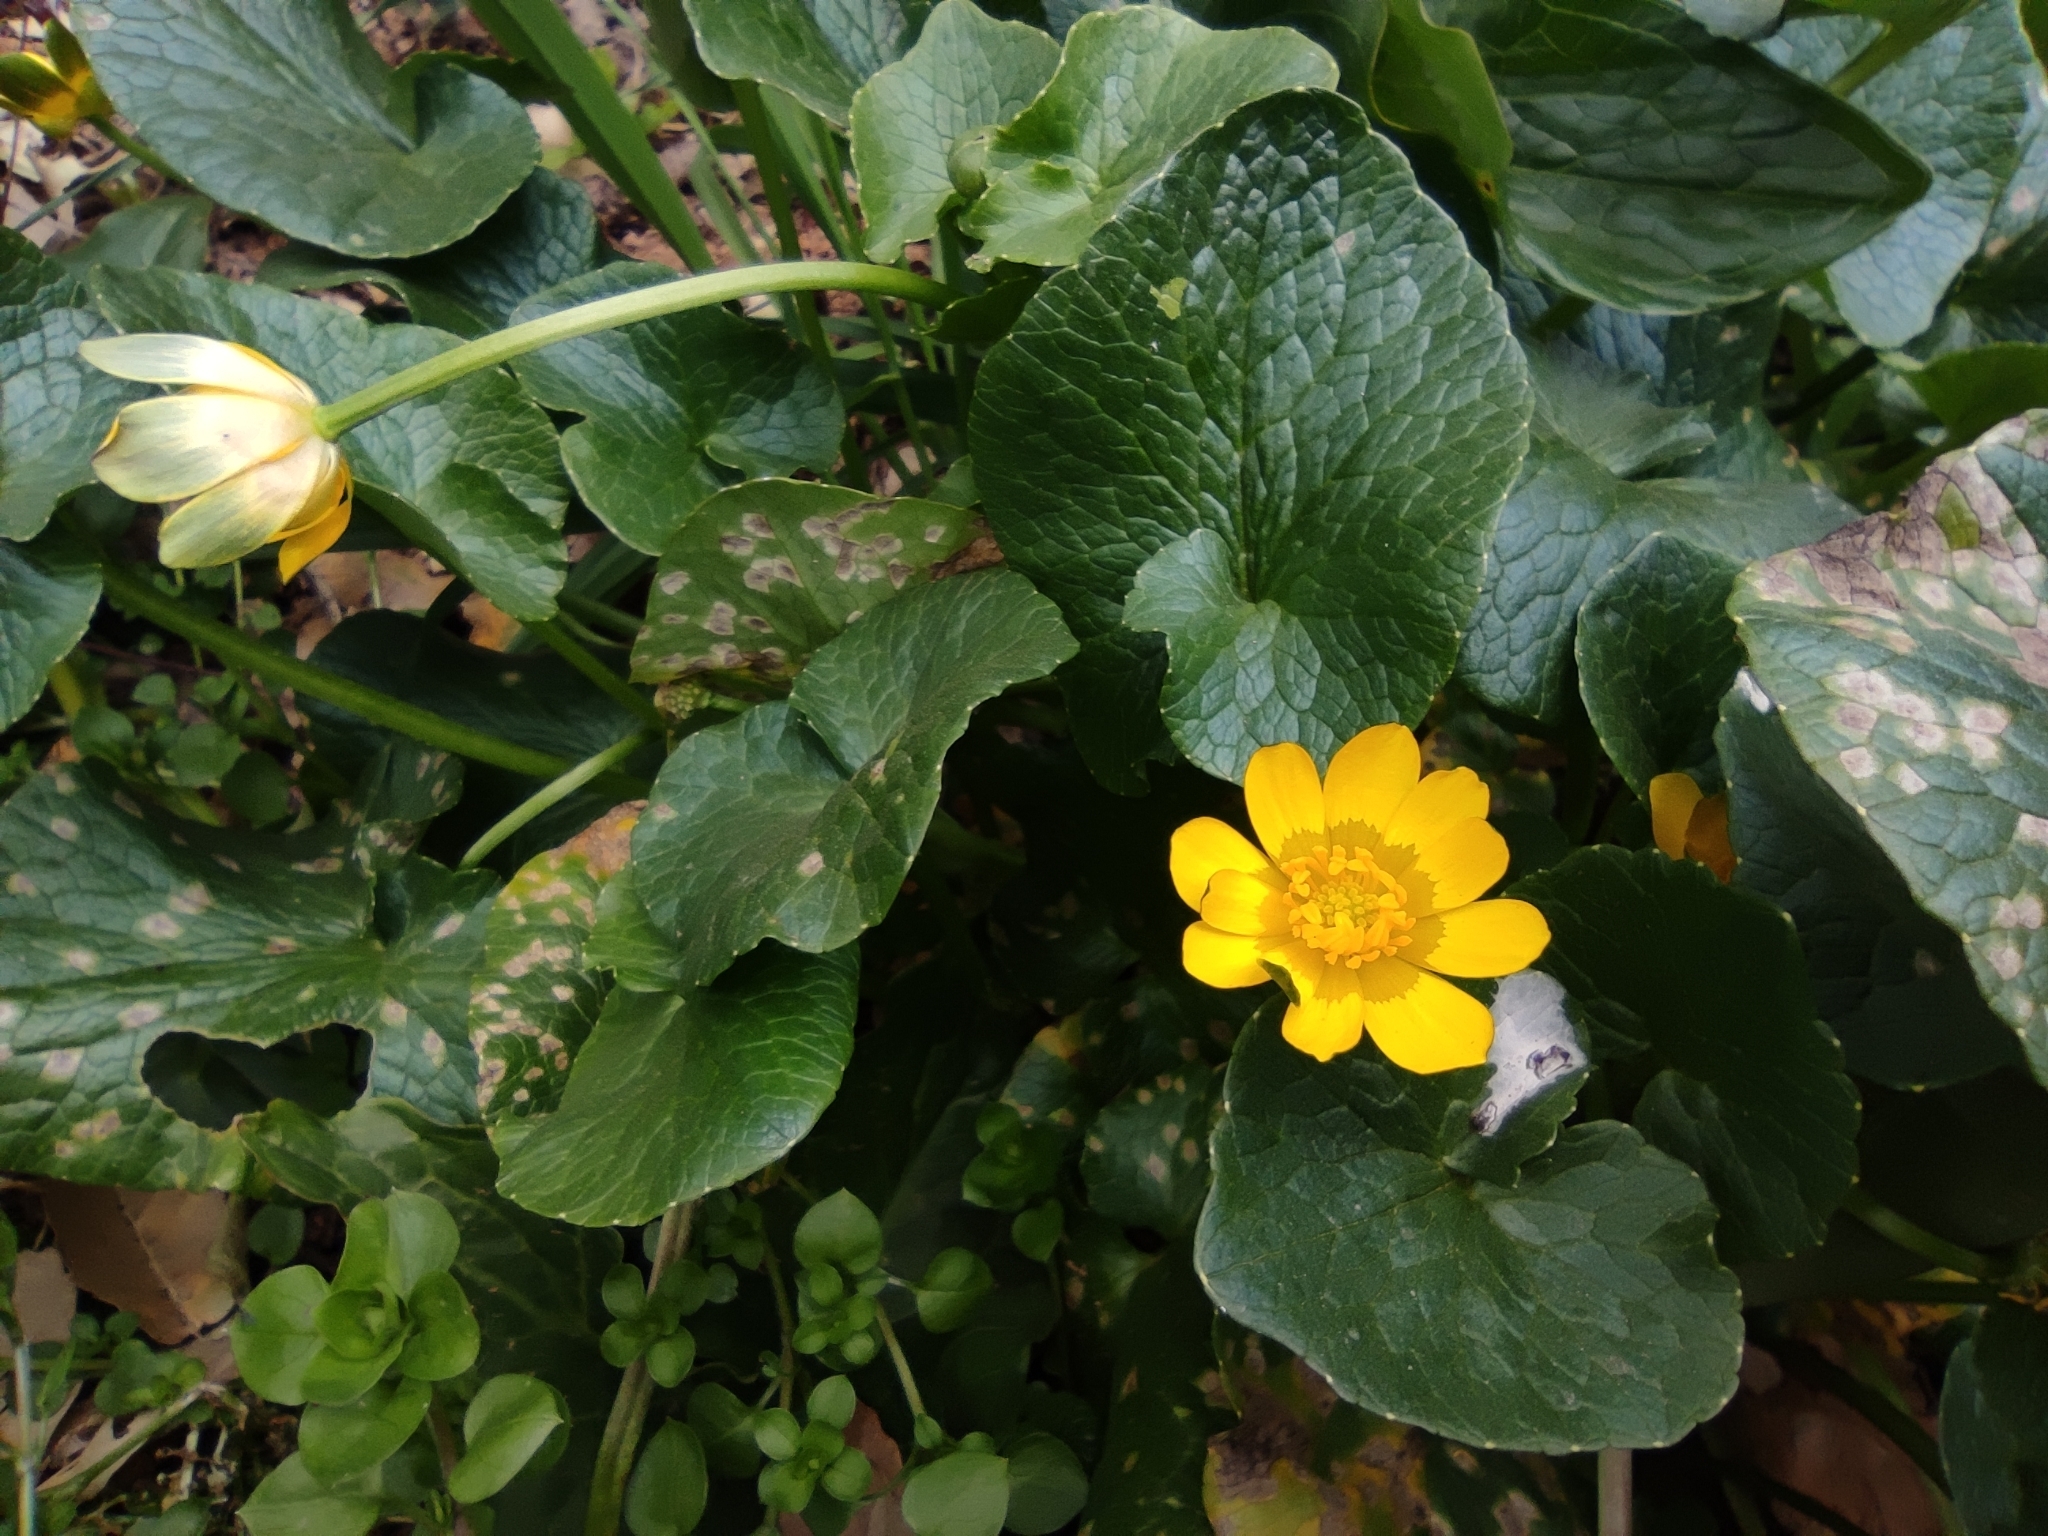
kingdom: Plantae
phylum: Tracheophyta
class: Magnoliopsida
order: Ranunculales
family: Ranunculaceae
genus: Ficaria
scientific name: Ficaria verna
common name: Lesser celandine
